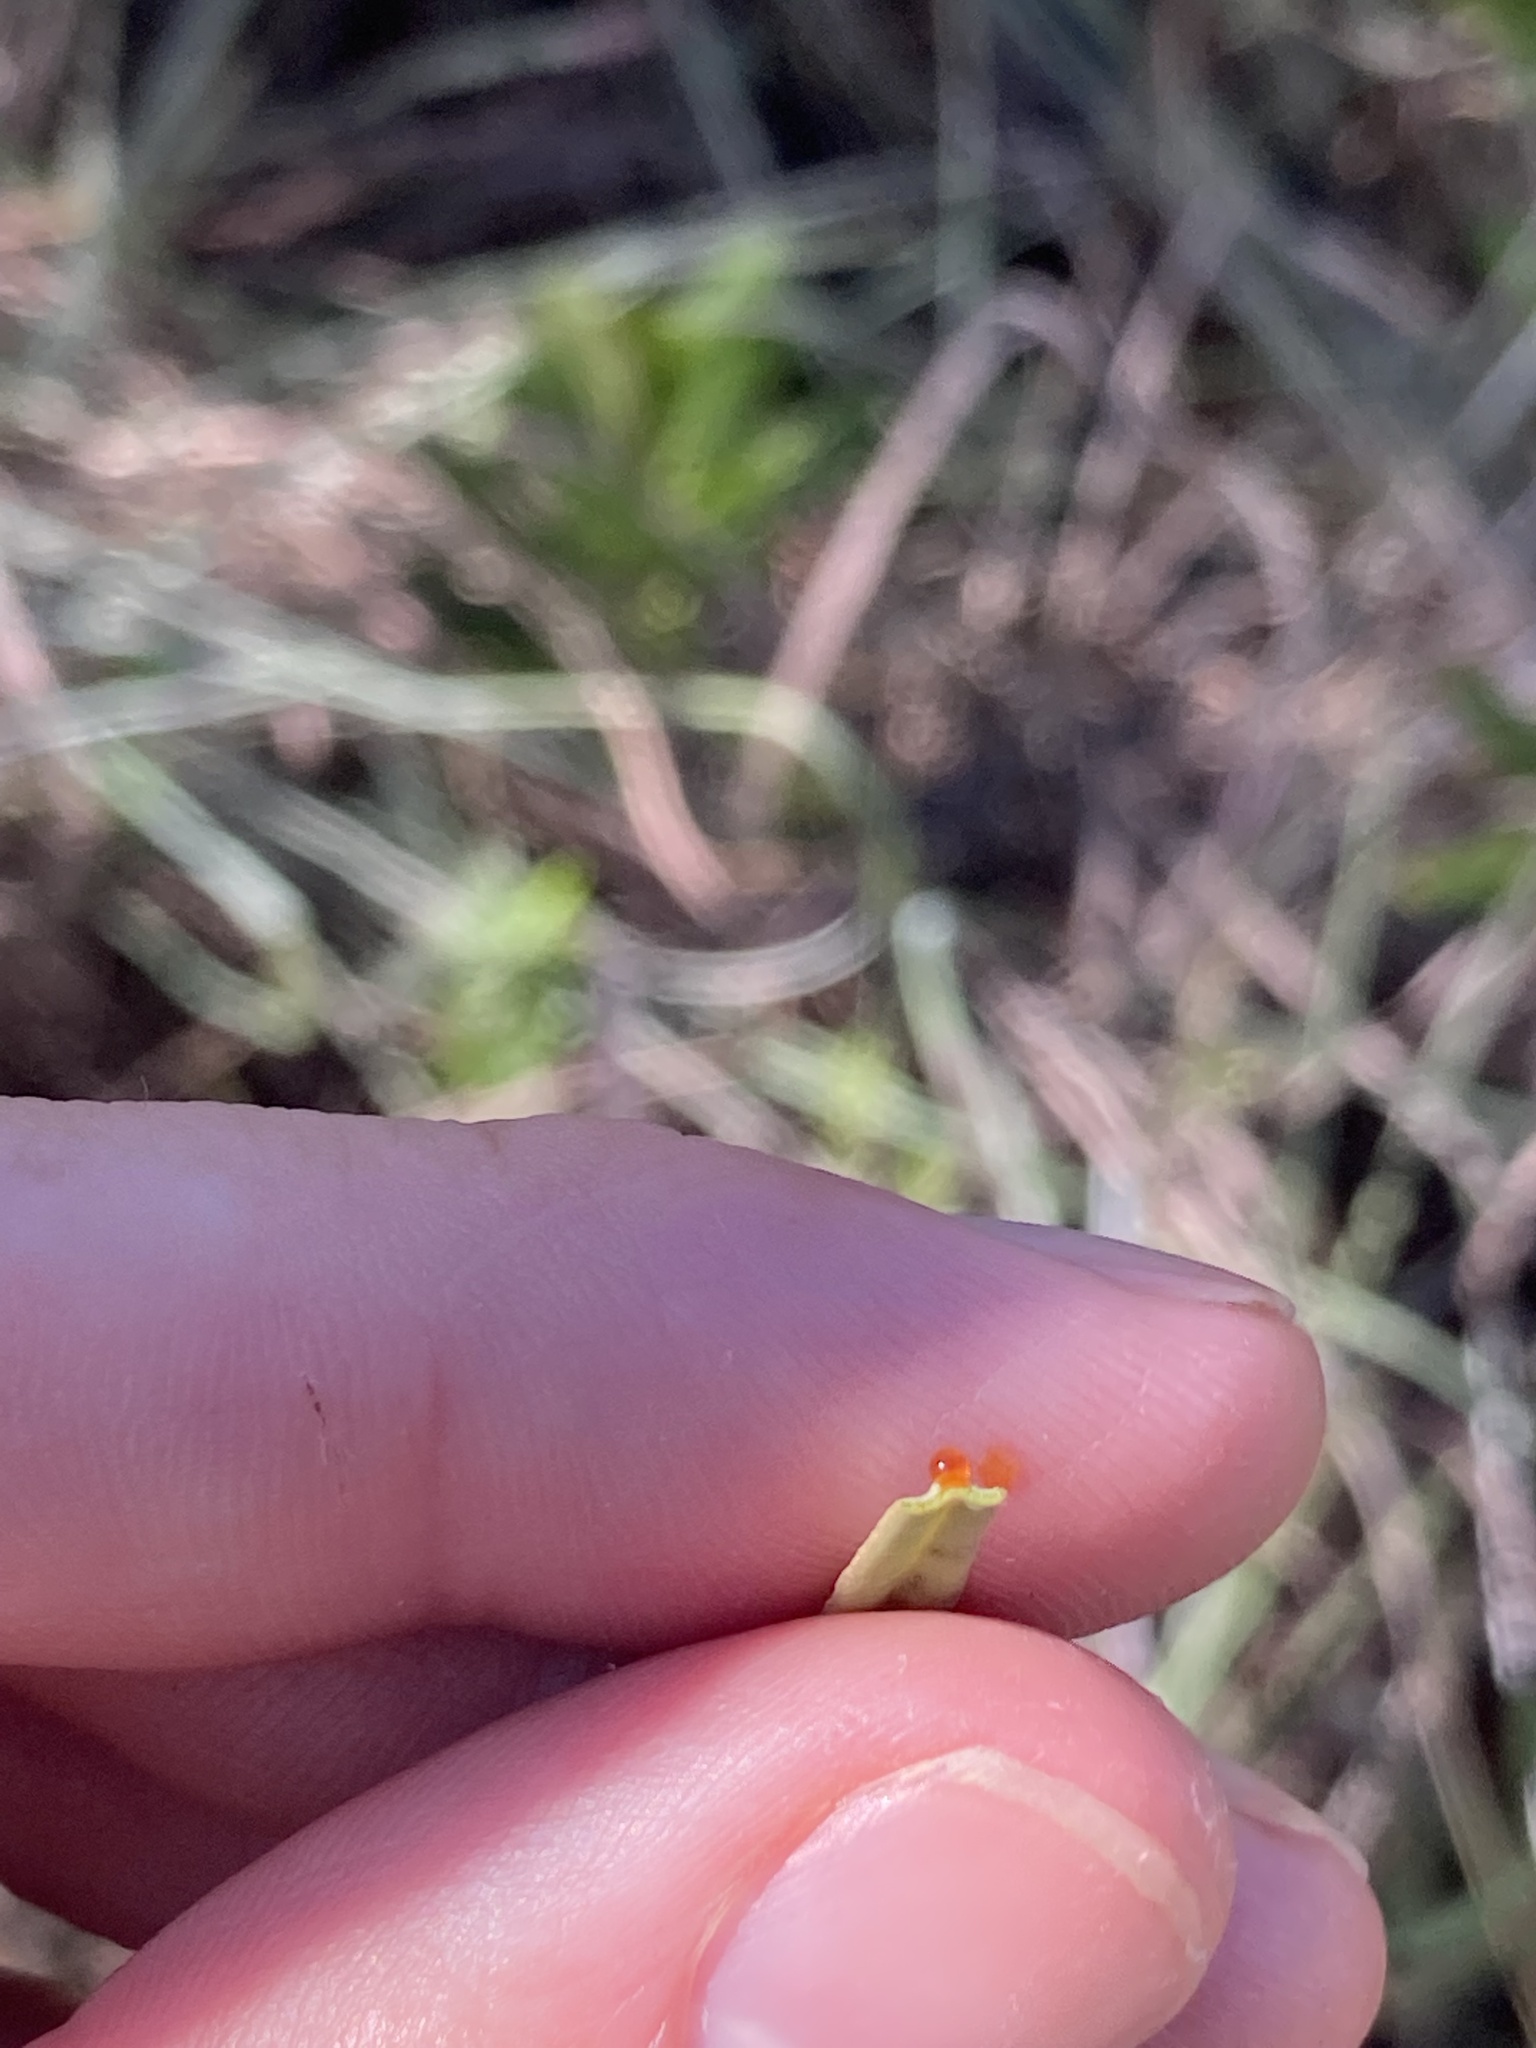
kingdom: Plantae
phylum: Tracheophyta
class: Magnoliopsida
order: Malpighiales
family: Euphorbiaceae
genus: Croton
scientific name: Croton linearis
